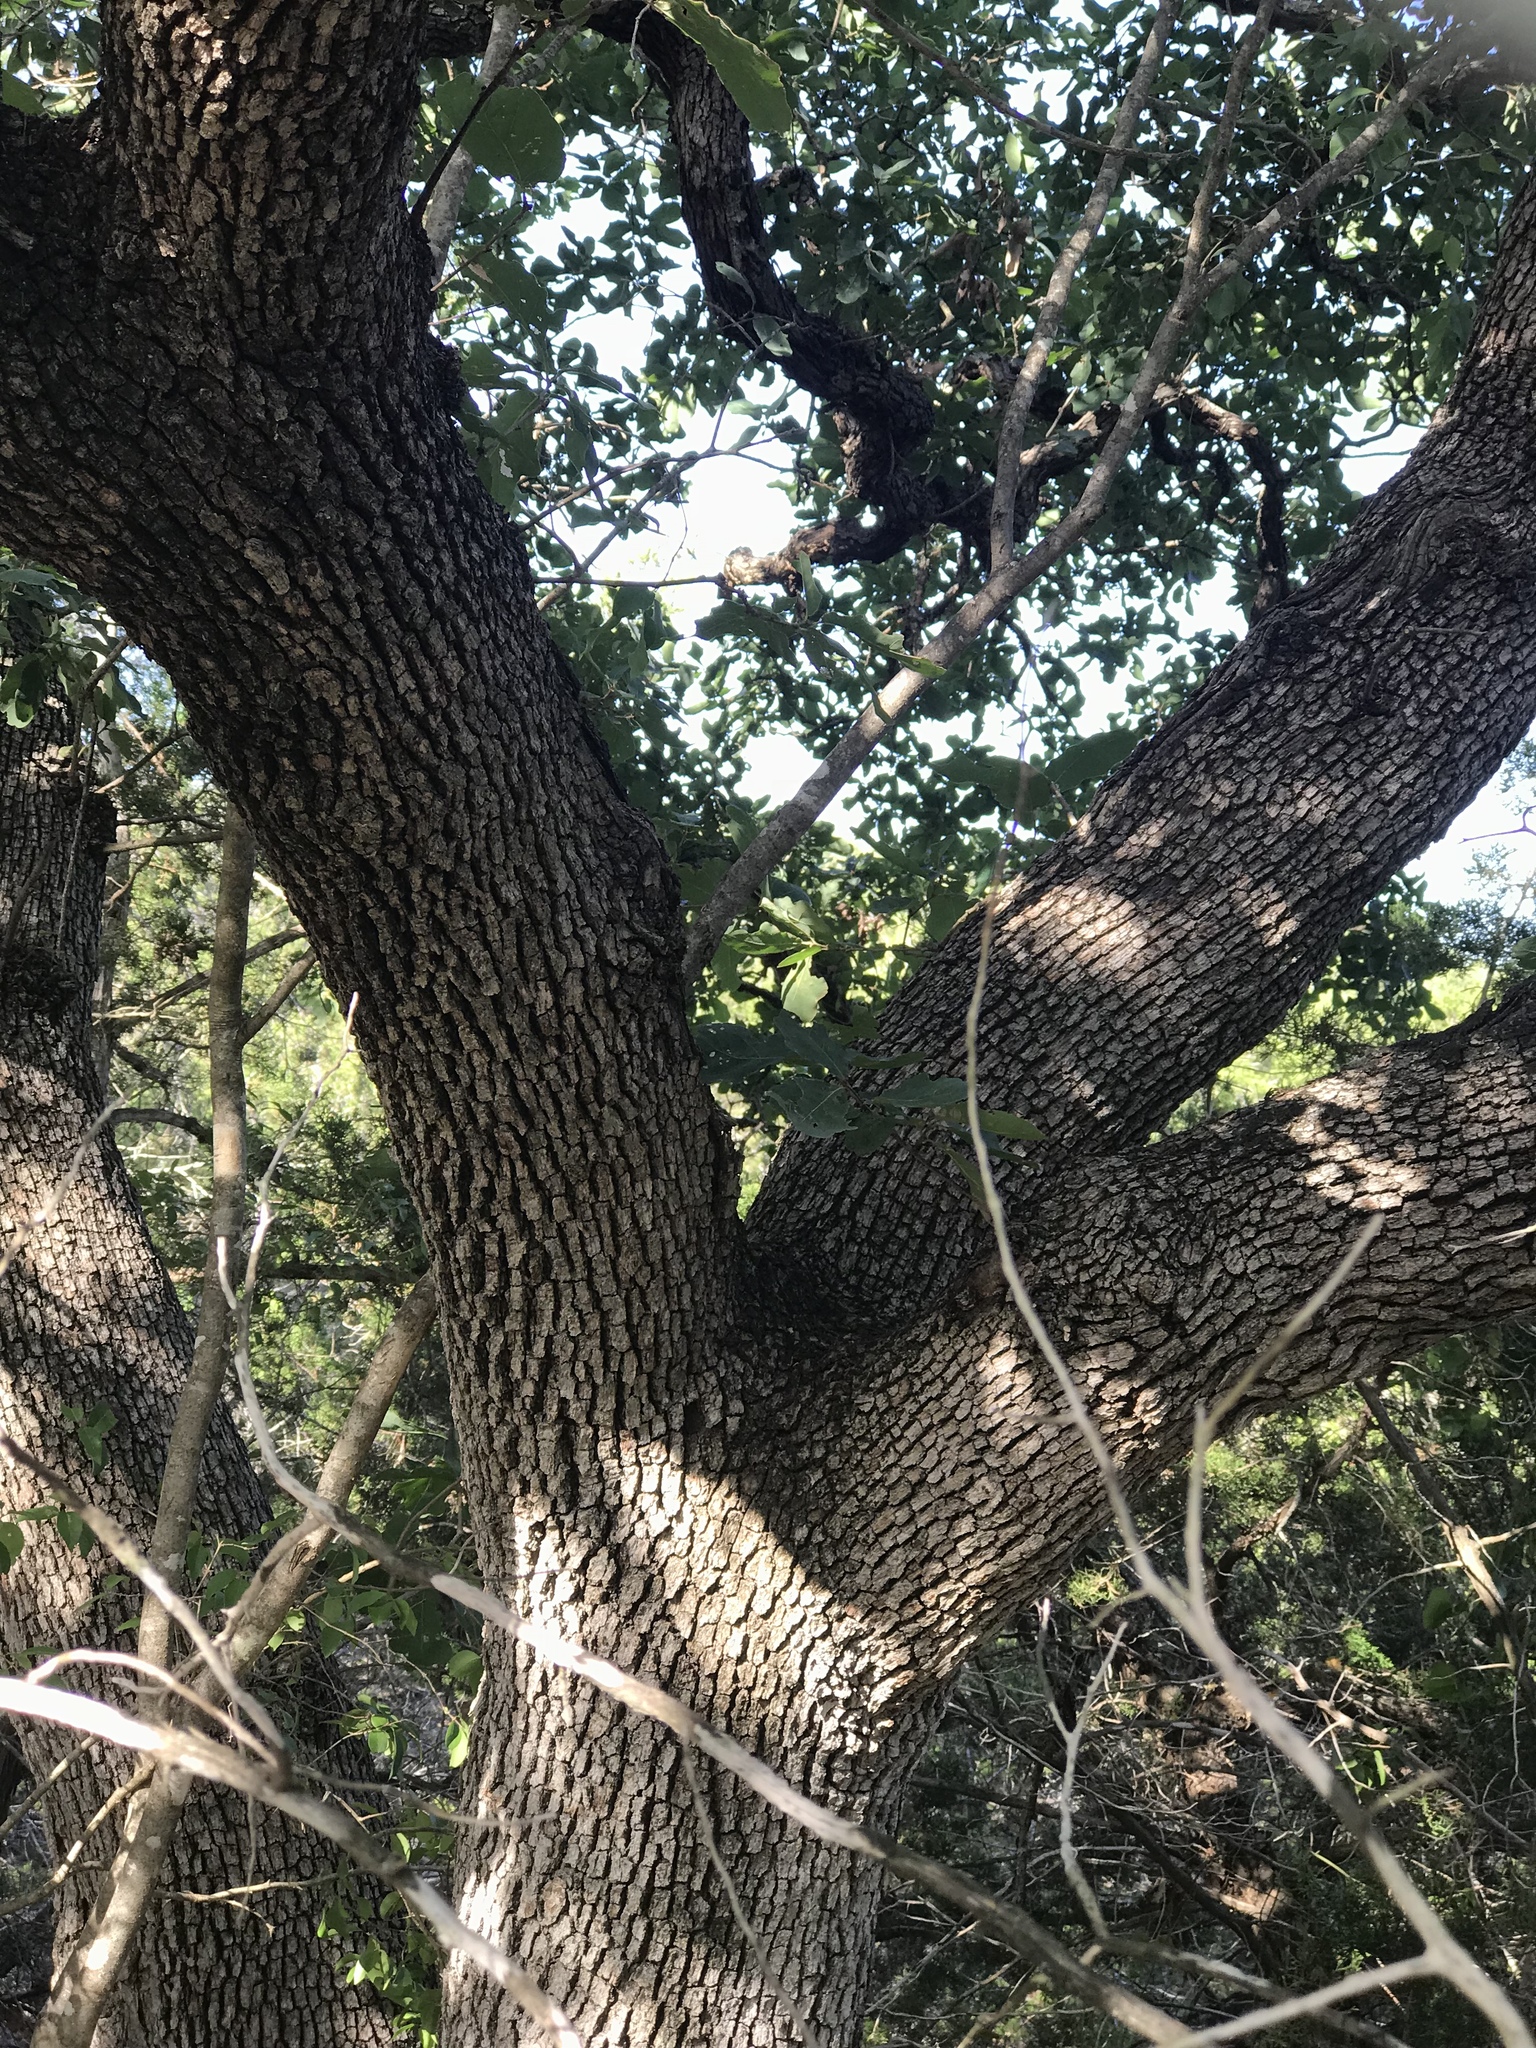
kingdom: Plantae
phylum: Tracheophyta
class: Magnoliopsida
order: Fagales
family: Fagaceae
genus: Quercus
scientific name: Quercus laceyi
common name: Lacey oak
